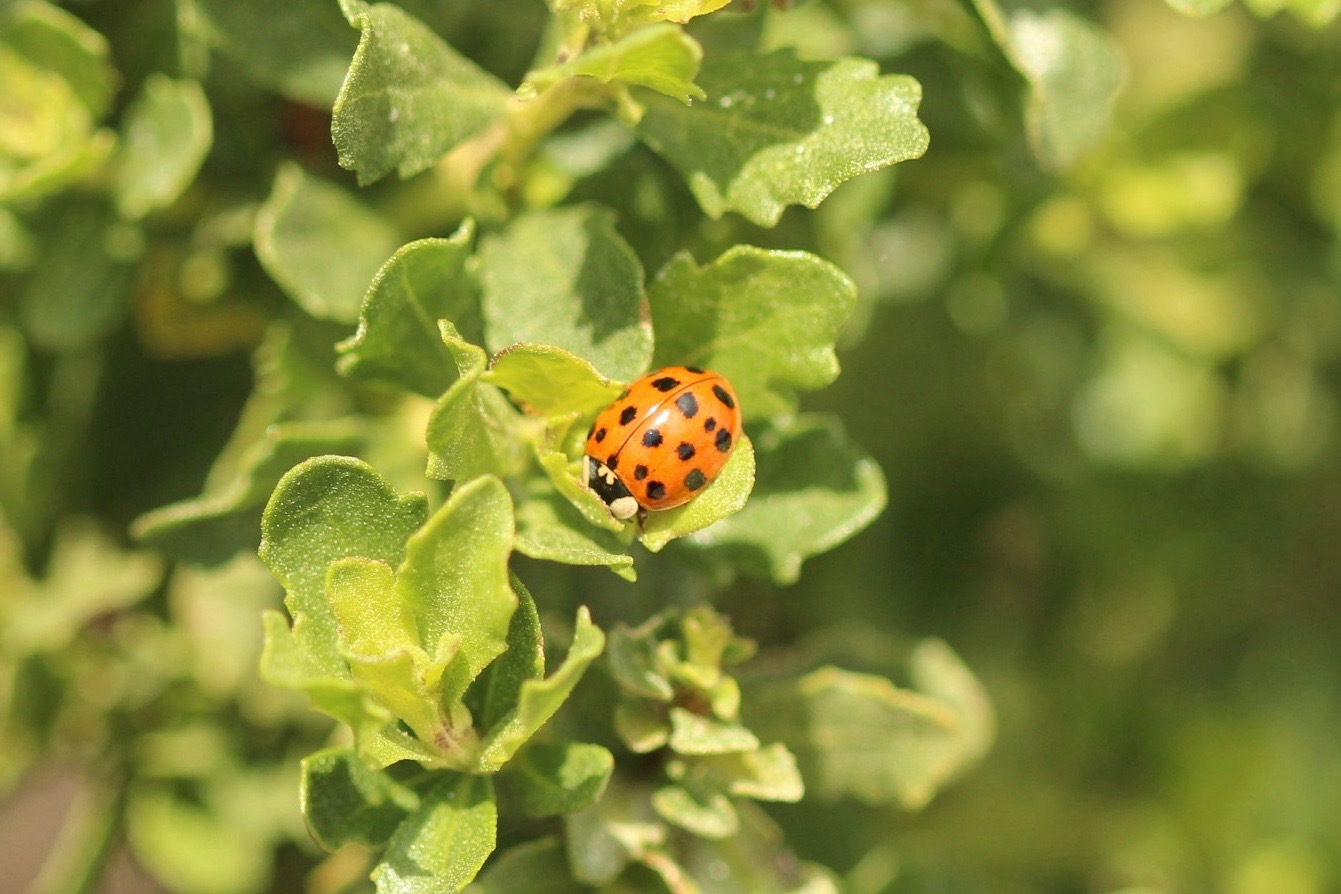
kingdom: Animalia
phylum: Arthropoda
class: Insecta
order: Coleoptera
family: Coccinellidae
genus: Harmonia
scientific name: Harmonia axyridis
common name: Harlequin ladybird
